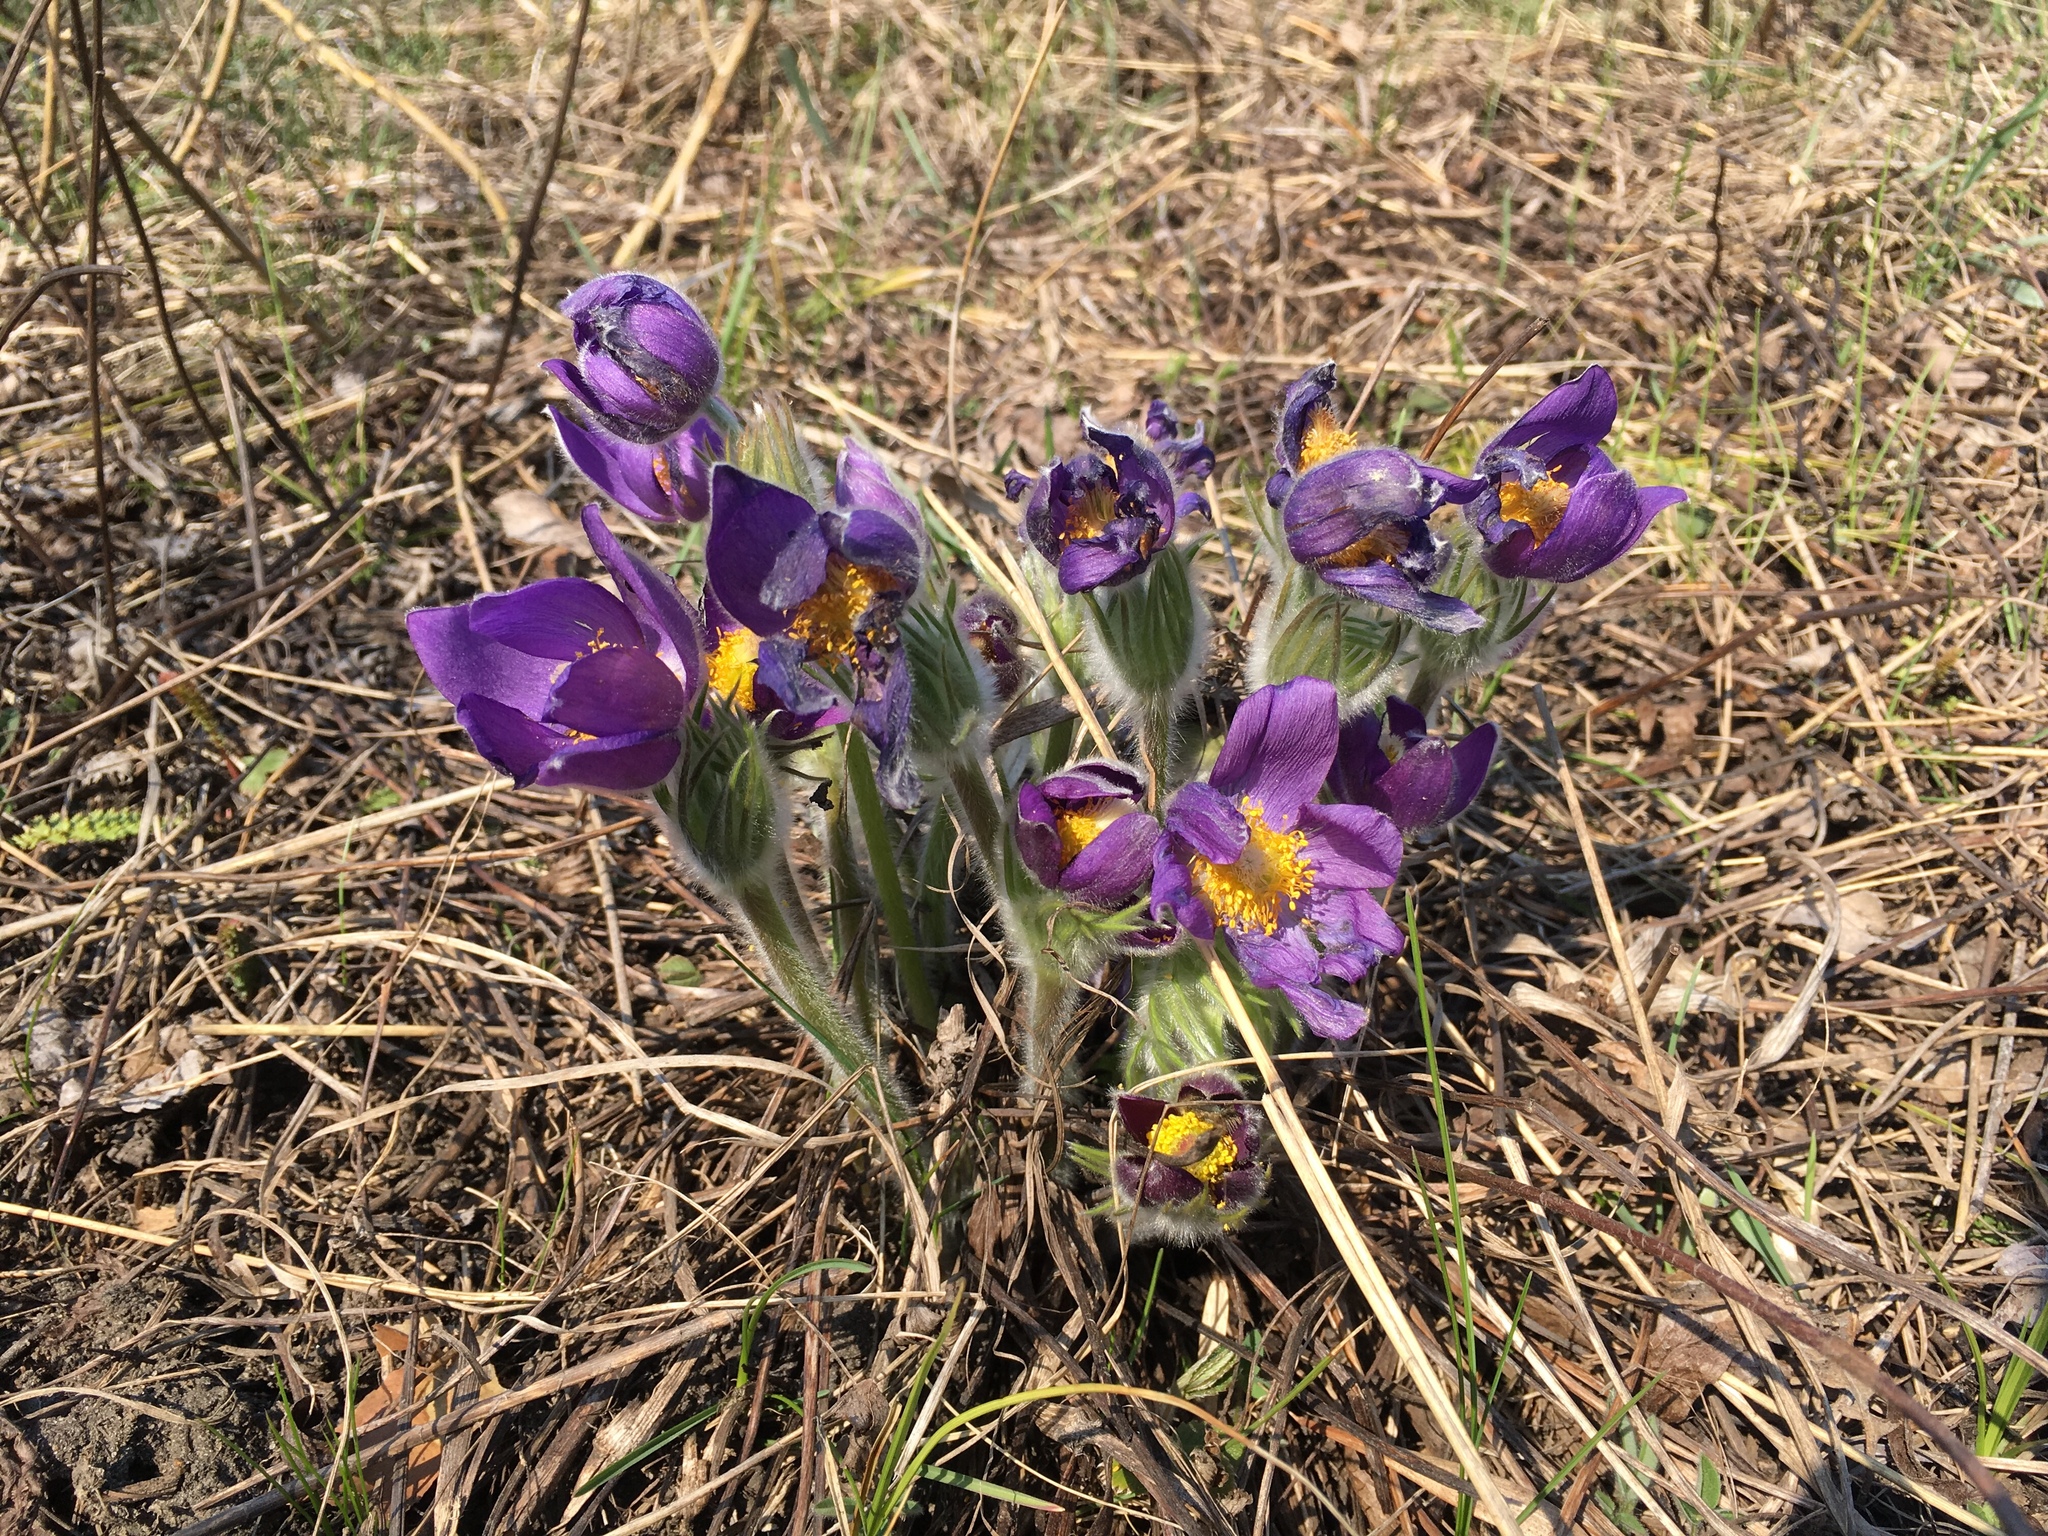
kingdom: Plantae
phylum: Tracheophyta
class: Magnoliopsida
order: Ranunculales
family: Ranunculaceae
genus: Pulsatilla
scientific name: Pulsatilla patens
